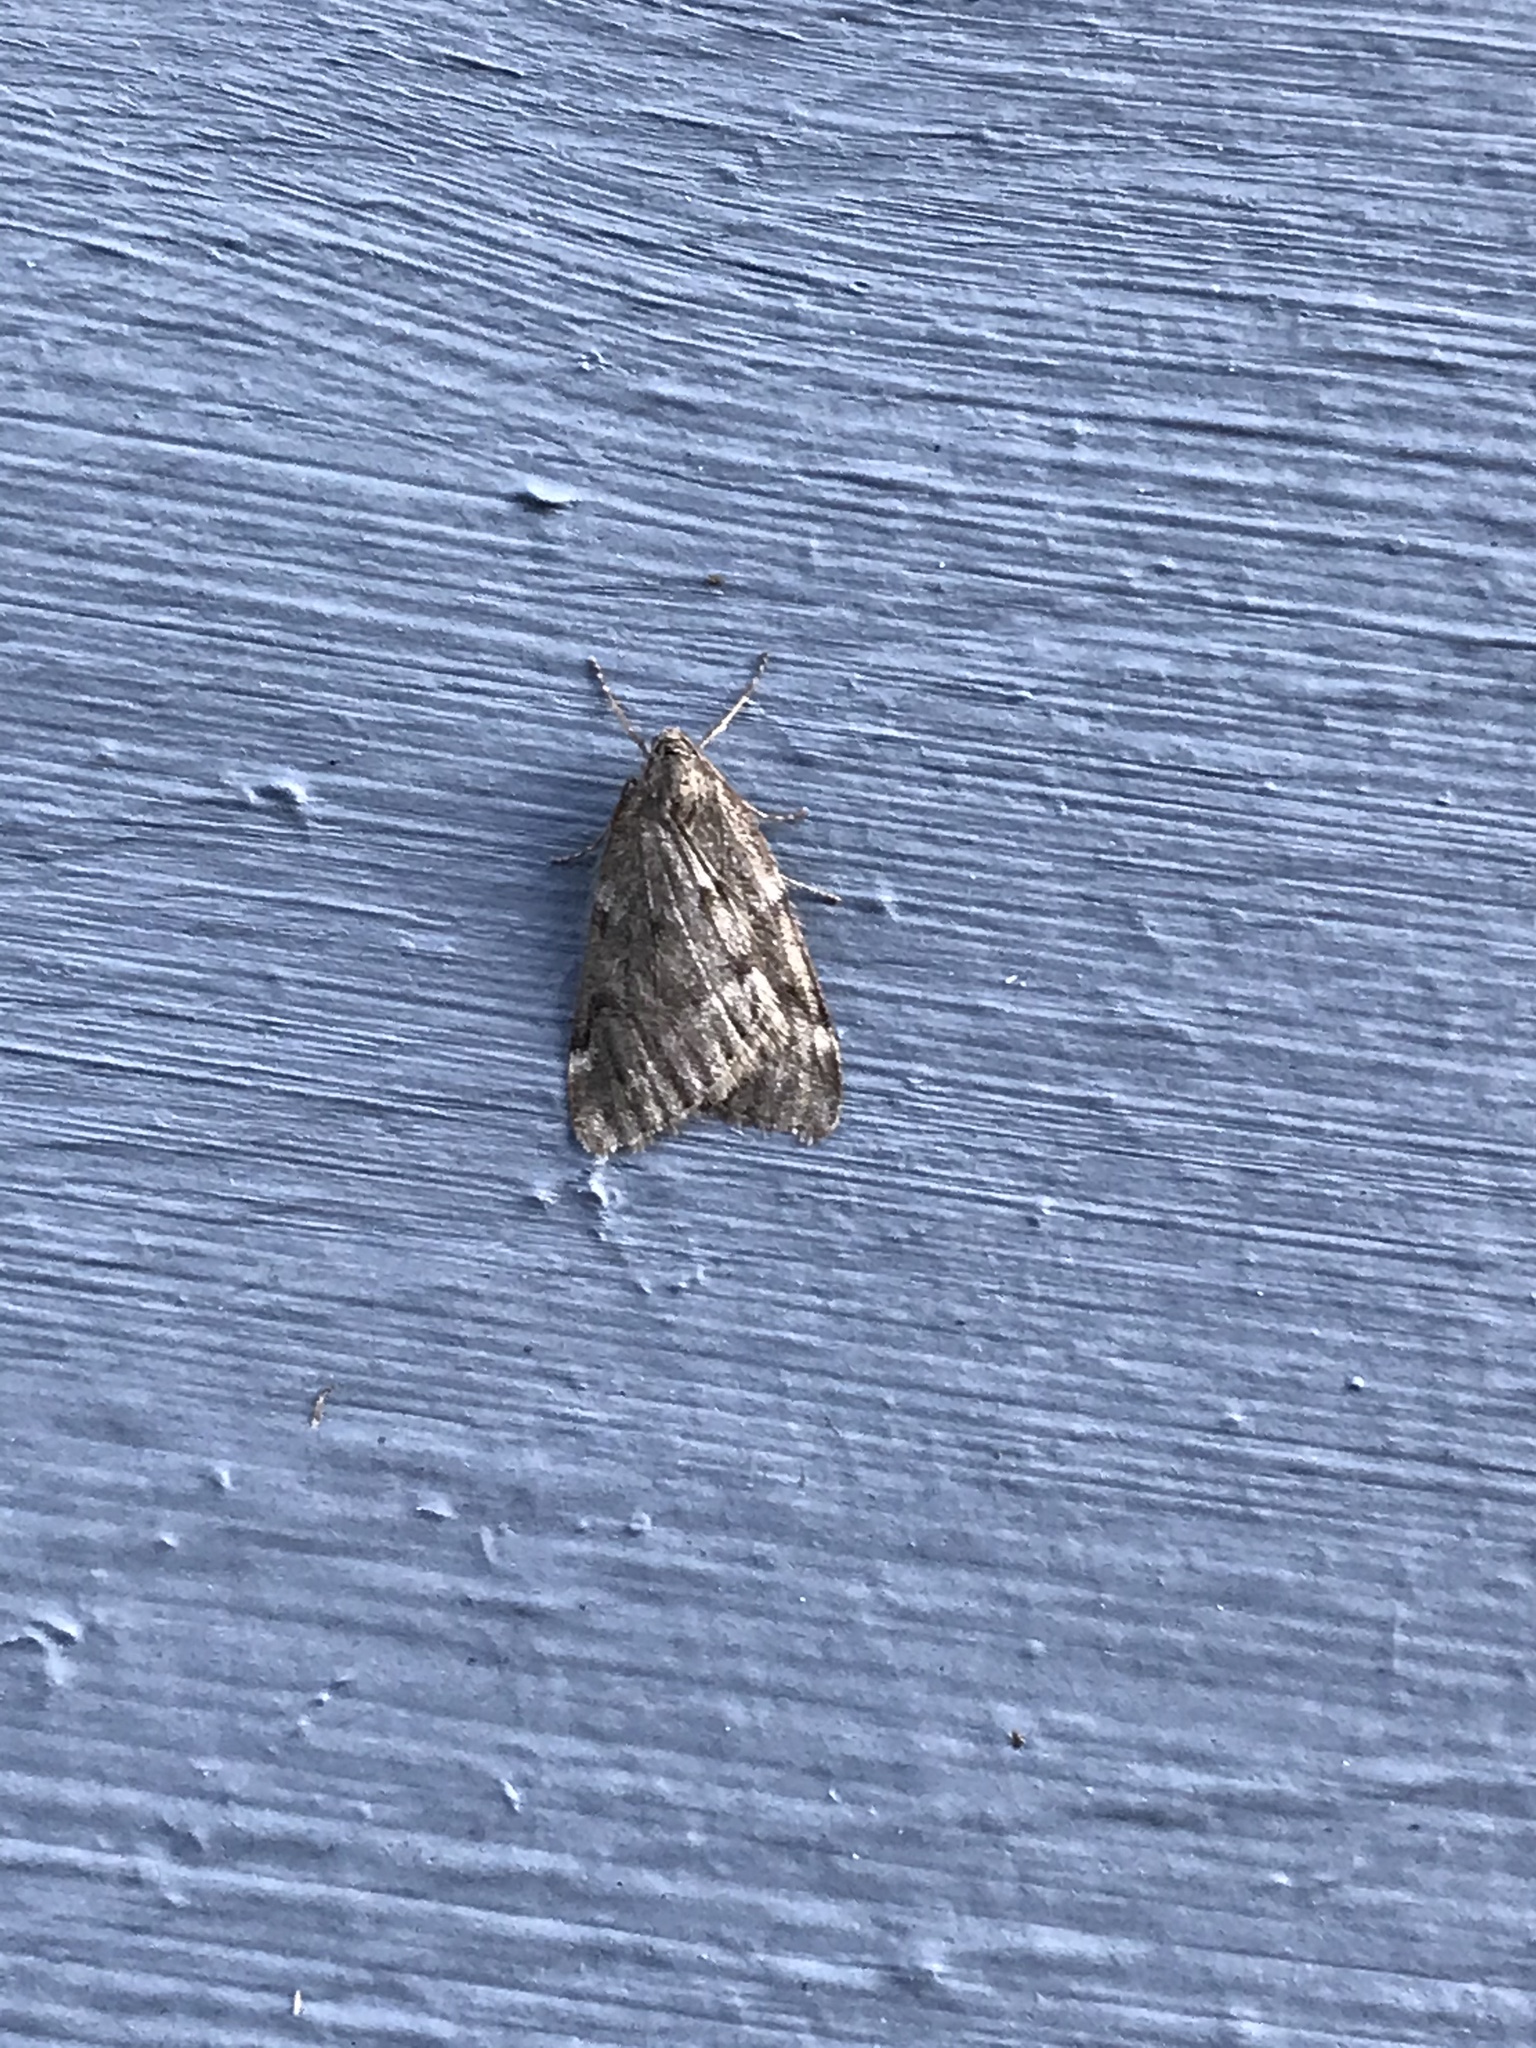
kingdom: Animalia
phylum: Arthropoda
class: Insecta
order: Lepidoptera
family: Geometridae
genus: Alsophila
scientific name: Alsophila pometaria
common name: Fall cankerworm
